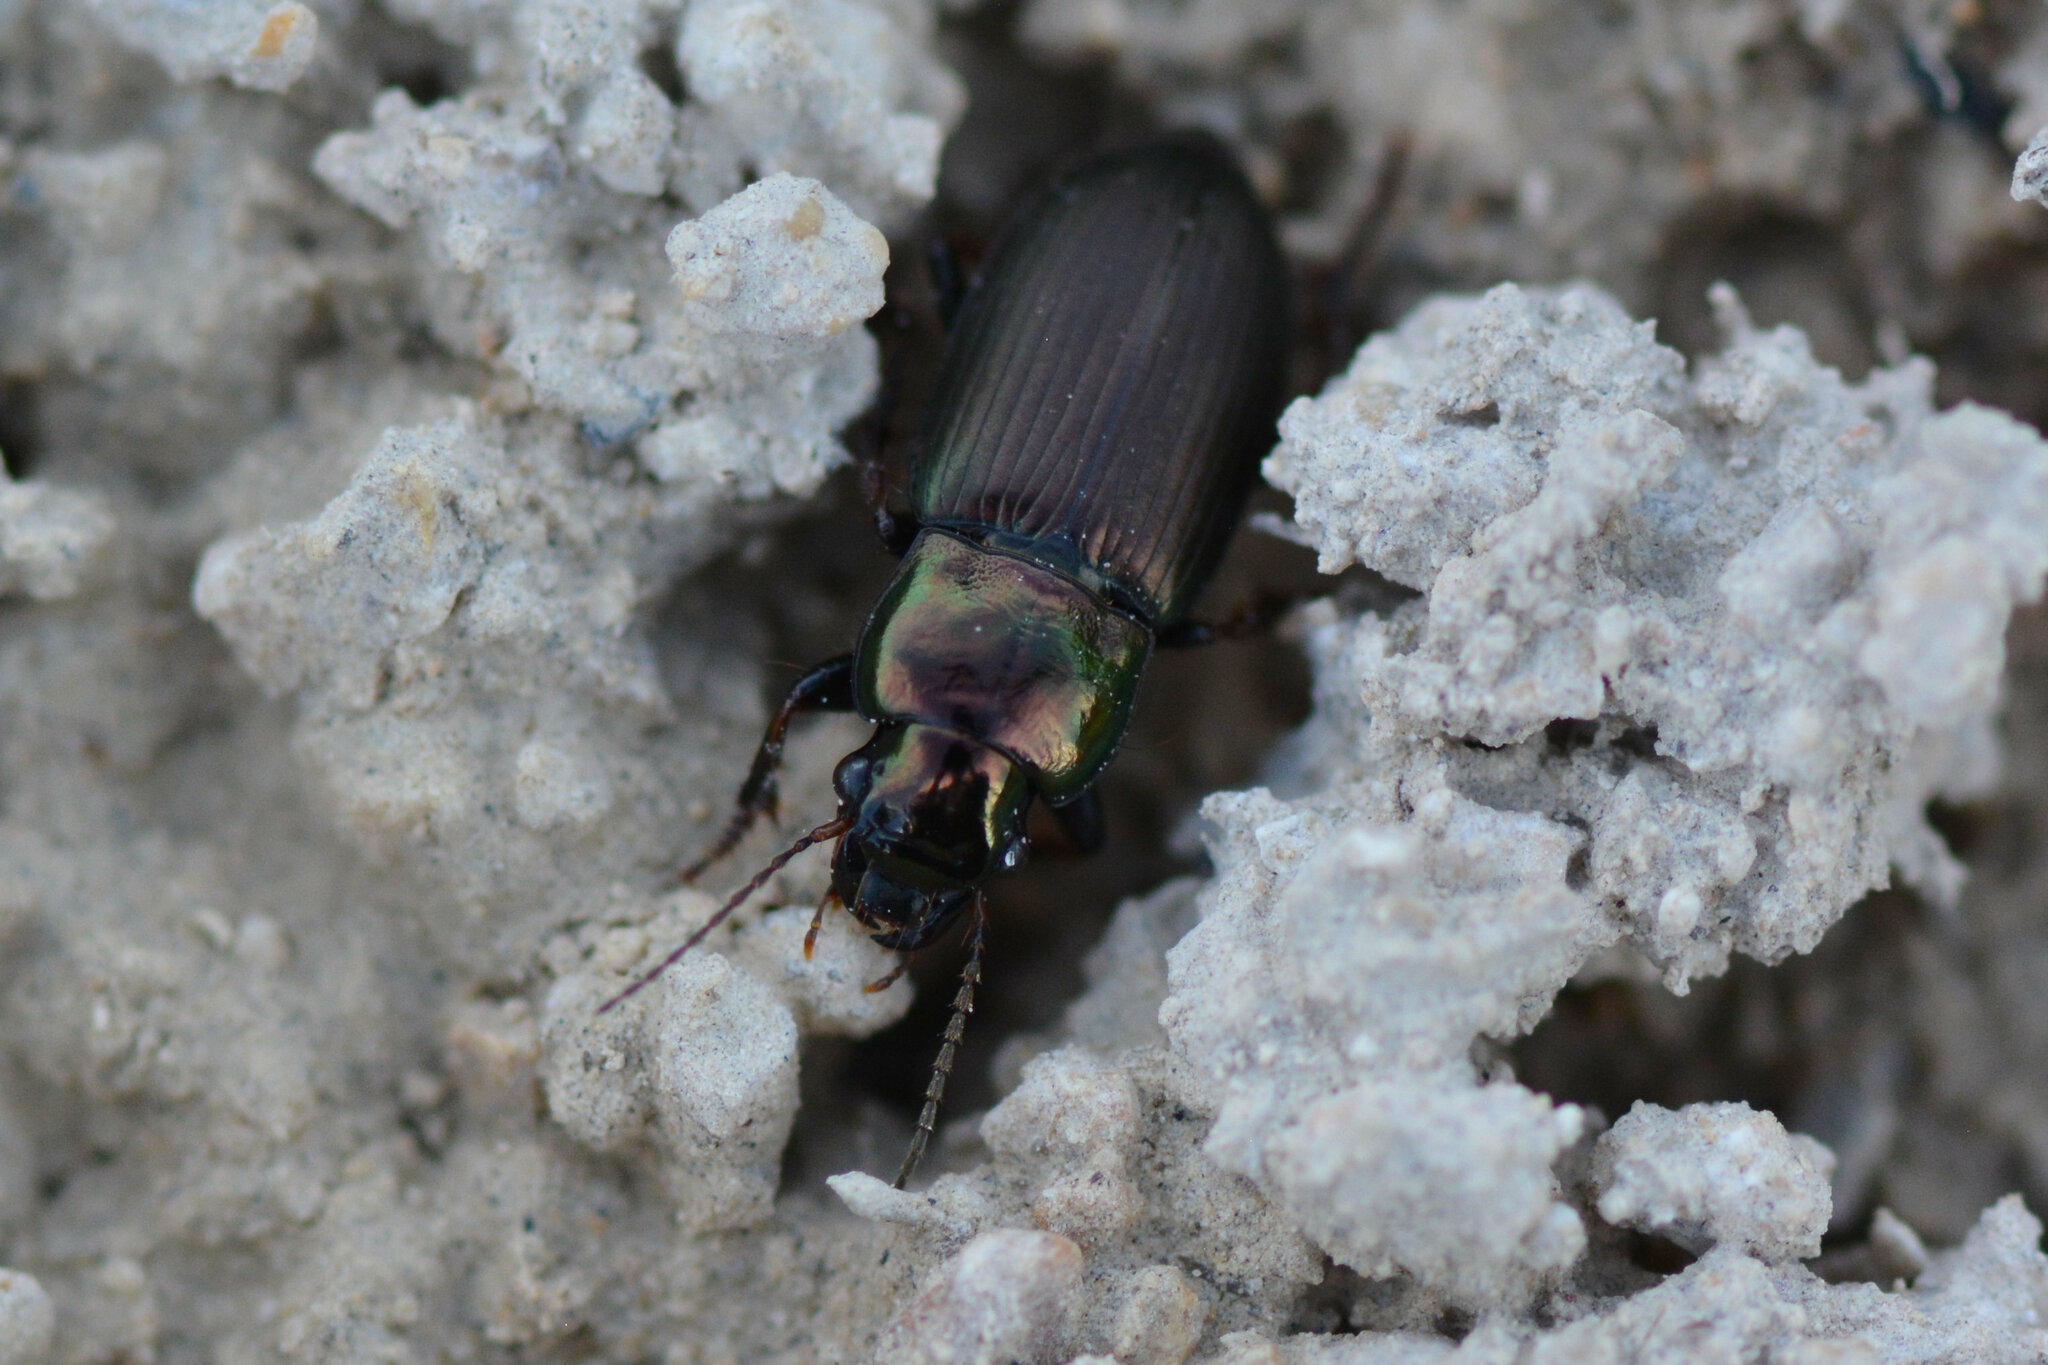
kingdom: Animalia
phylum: Arthropoda
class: Insecta
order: Coleoptera
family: Carabidae
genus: Harpalus
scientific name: Harpalus distinguendus
